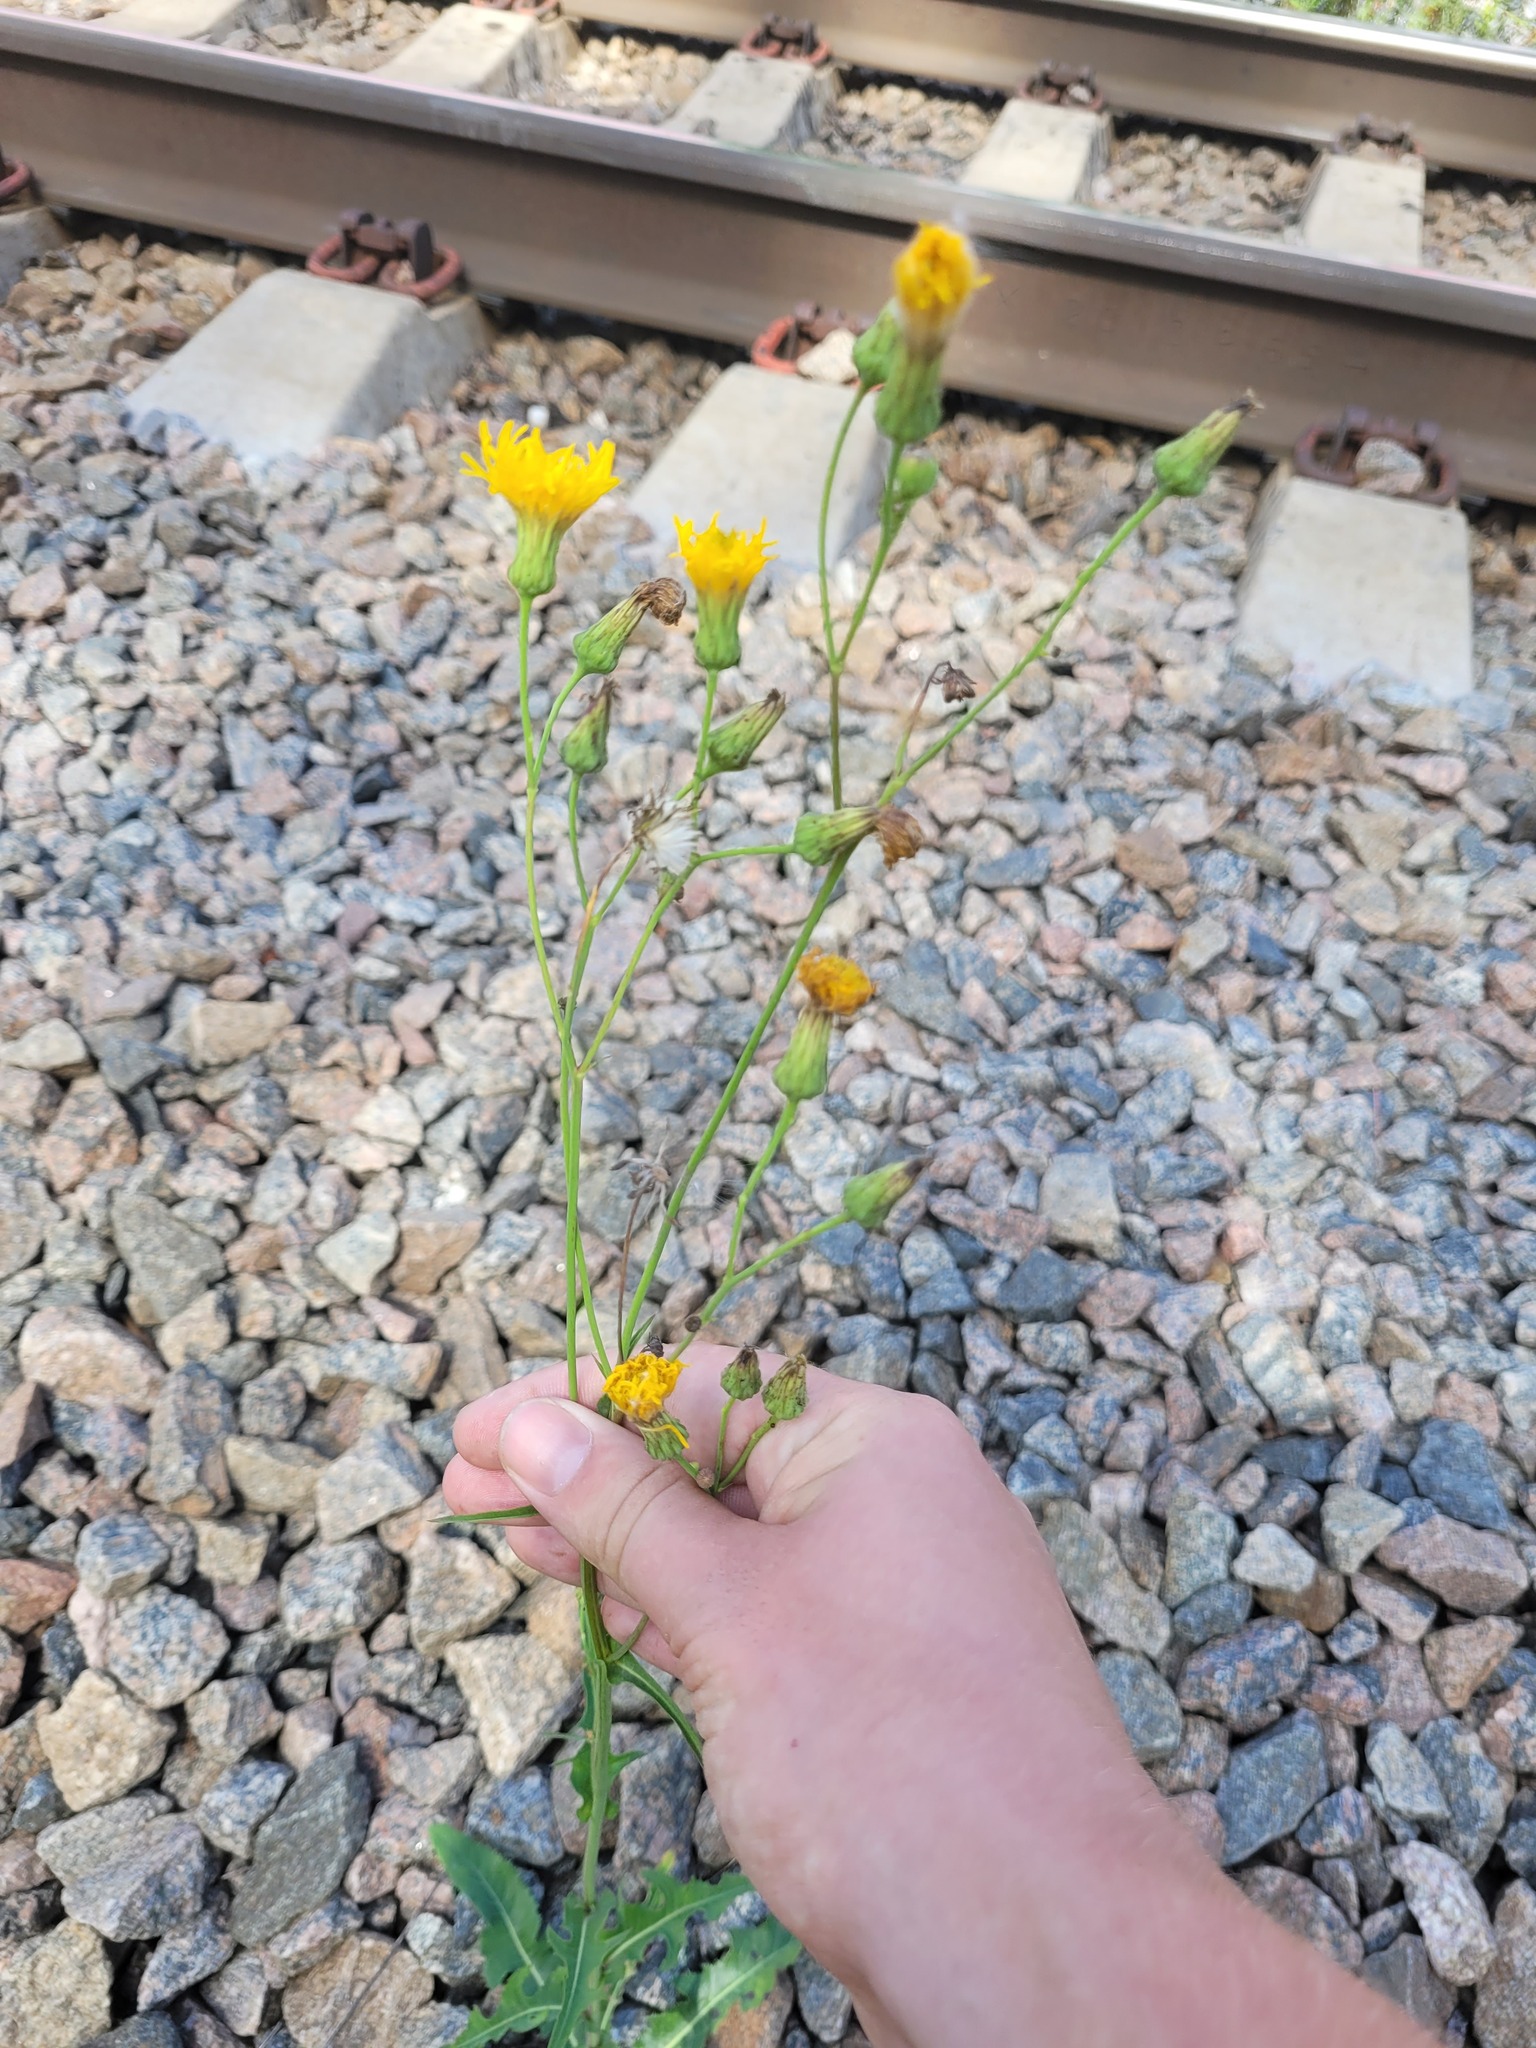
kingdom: Plantae
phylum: Tracheophyta
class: Magnoliopsida
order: Asterales
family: Asteraceae
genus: Sonchus
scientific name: Sonchus arvensis
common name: Perennial sow-thistle
